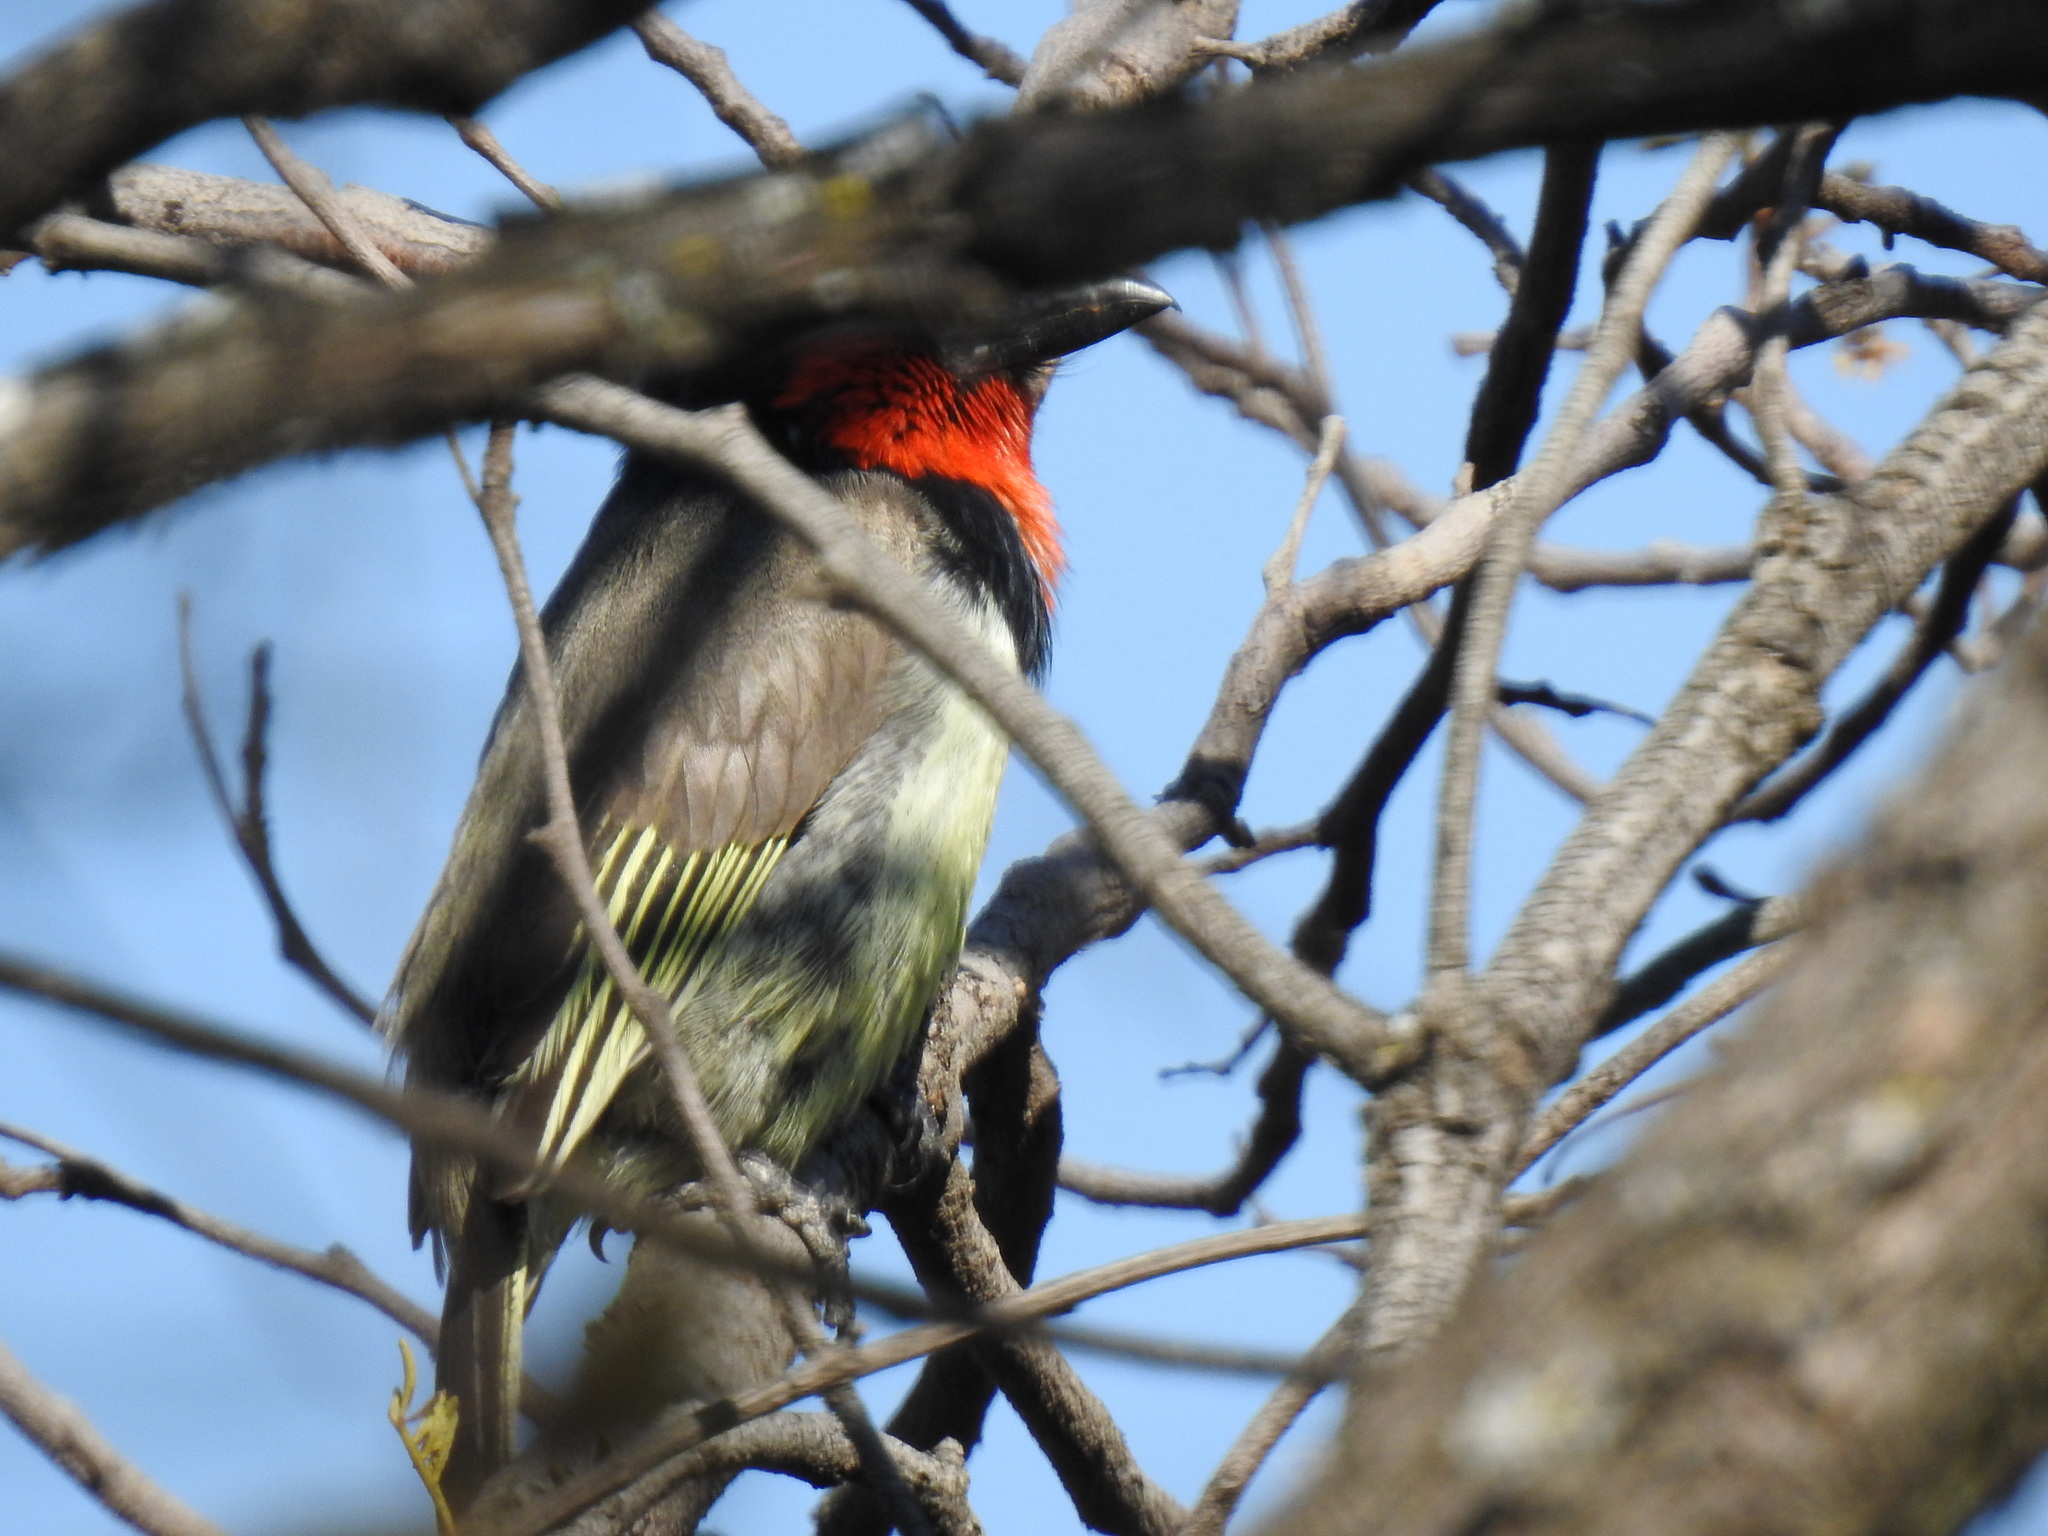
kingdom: Animalia
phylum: Chordata
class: Aves
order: Piciformes
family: Lybiidae
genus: Lybius
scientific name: Lybius torquatus
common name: Black-collared barbet
